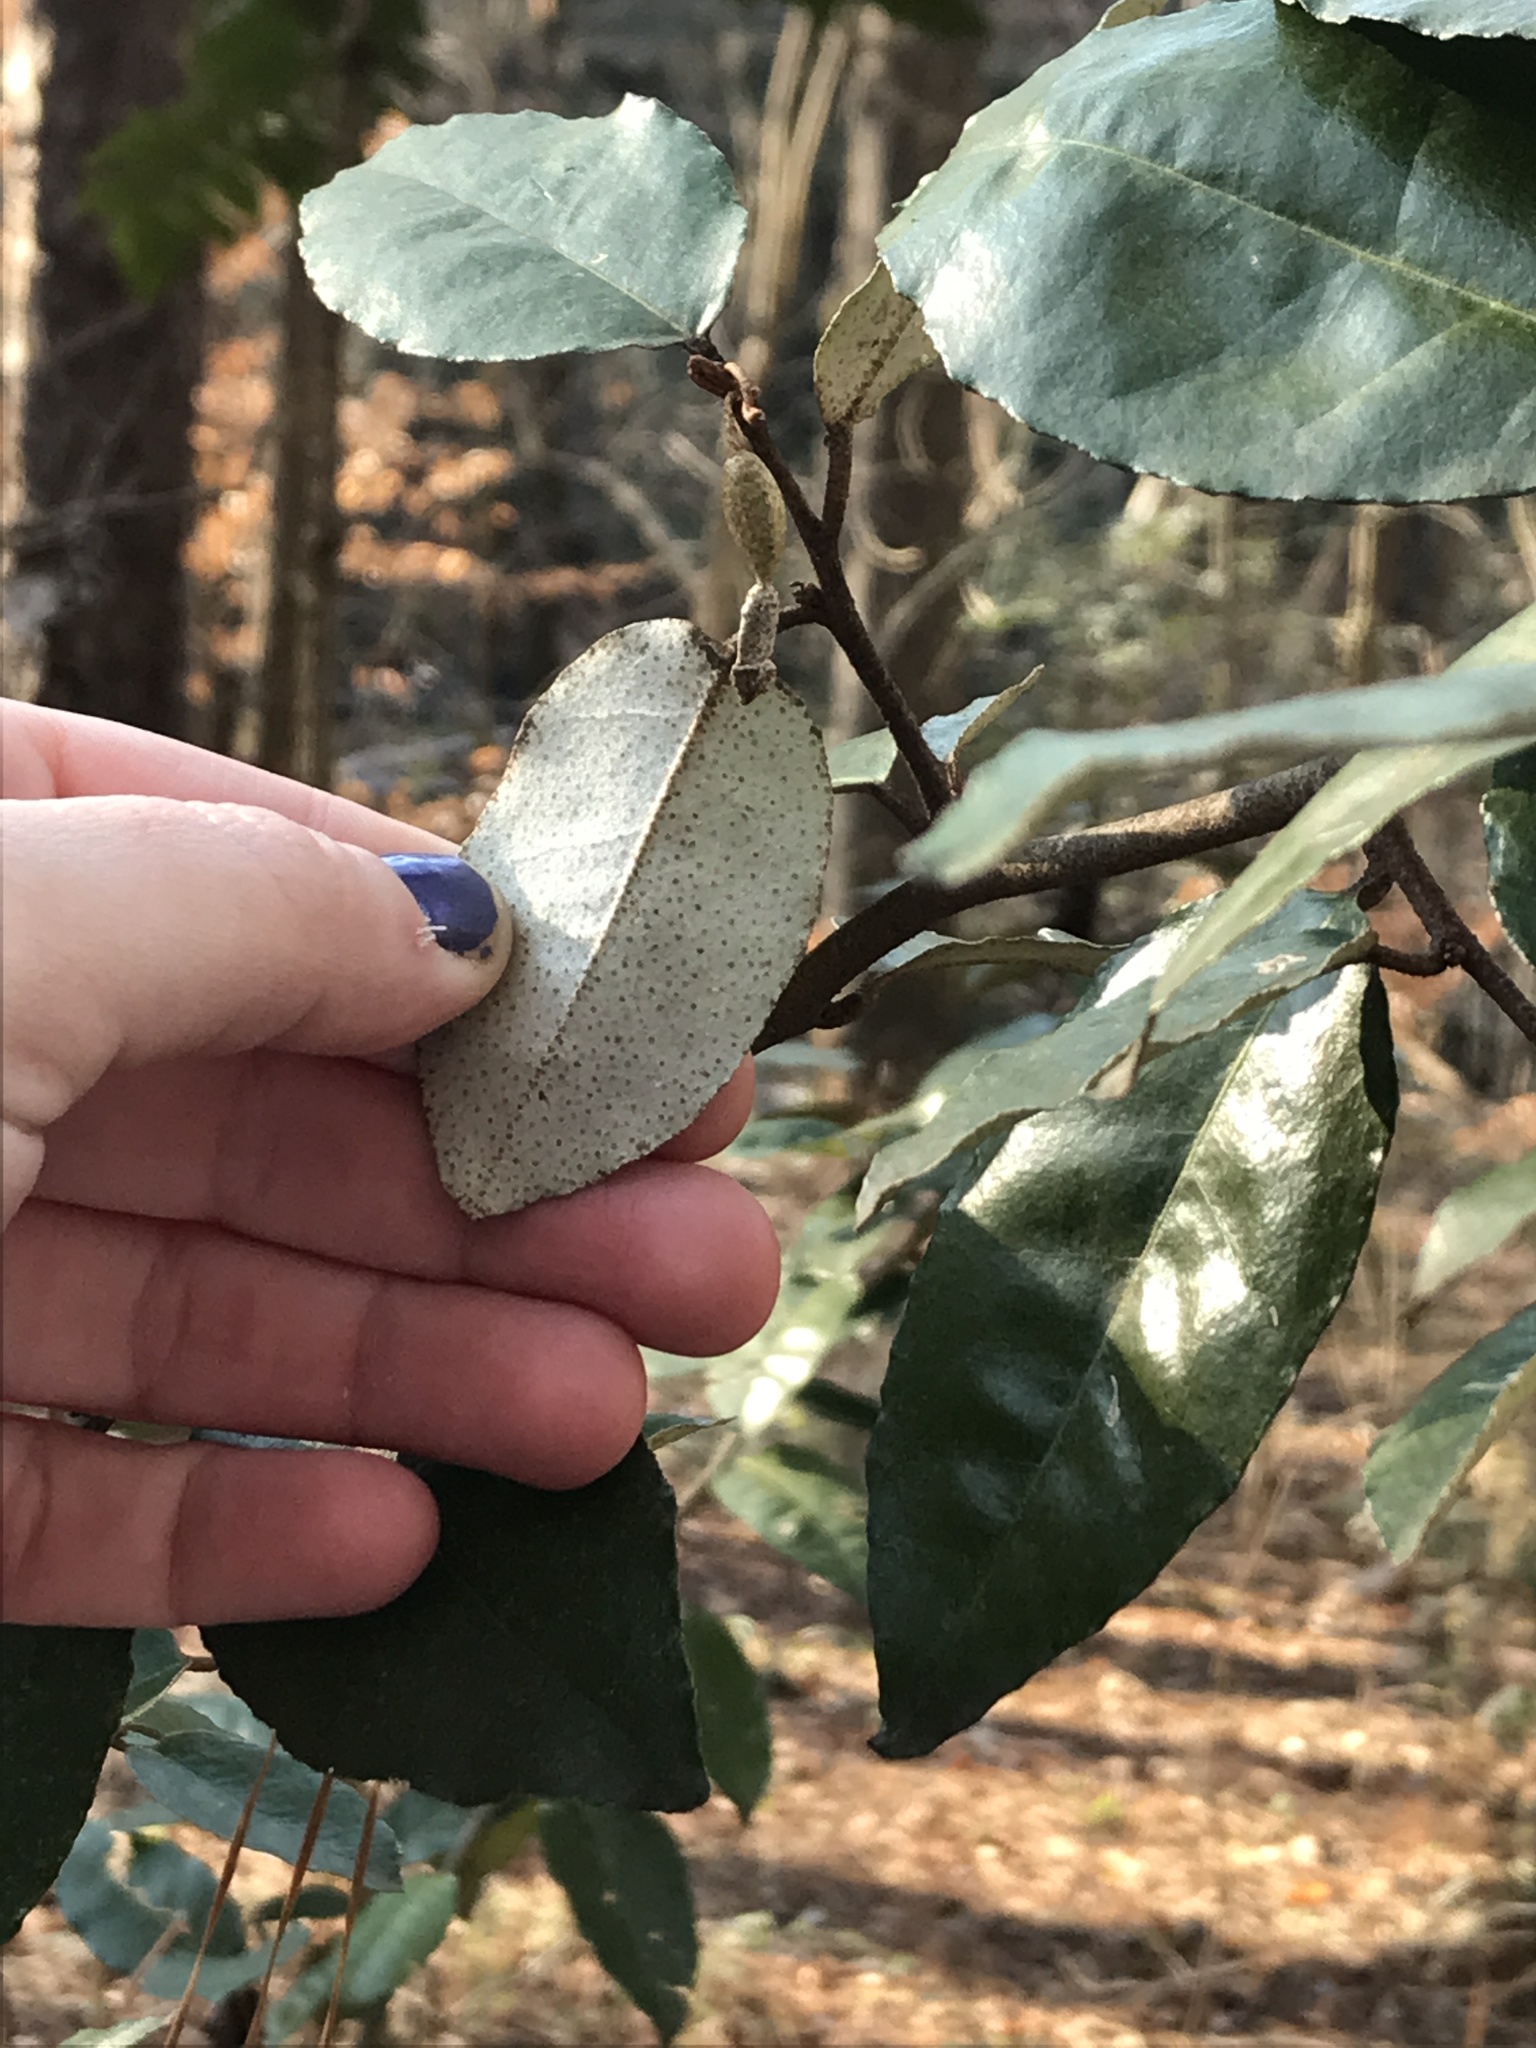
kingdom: Plantae
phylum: Tracheophyta
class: Magnoliopsida
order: Rosales
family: Elaeagnaceae
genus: Elaeagnus
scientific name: Elaeagnus pungens
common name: Spiny oleaster
